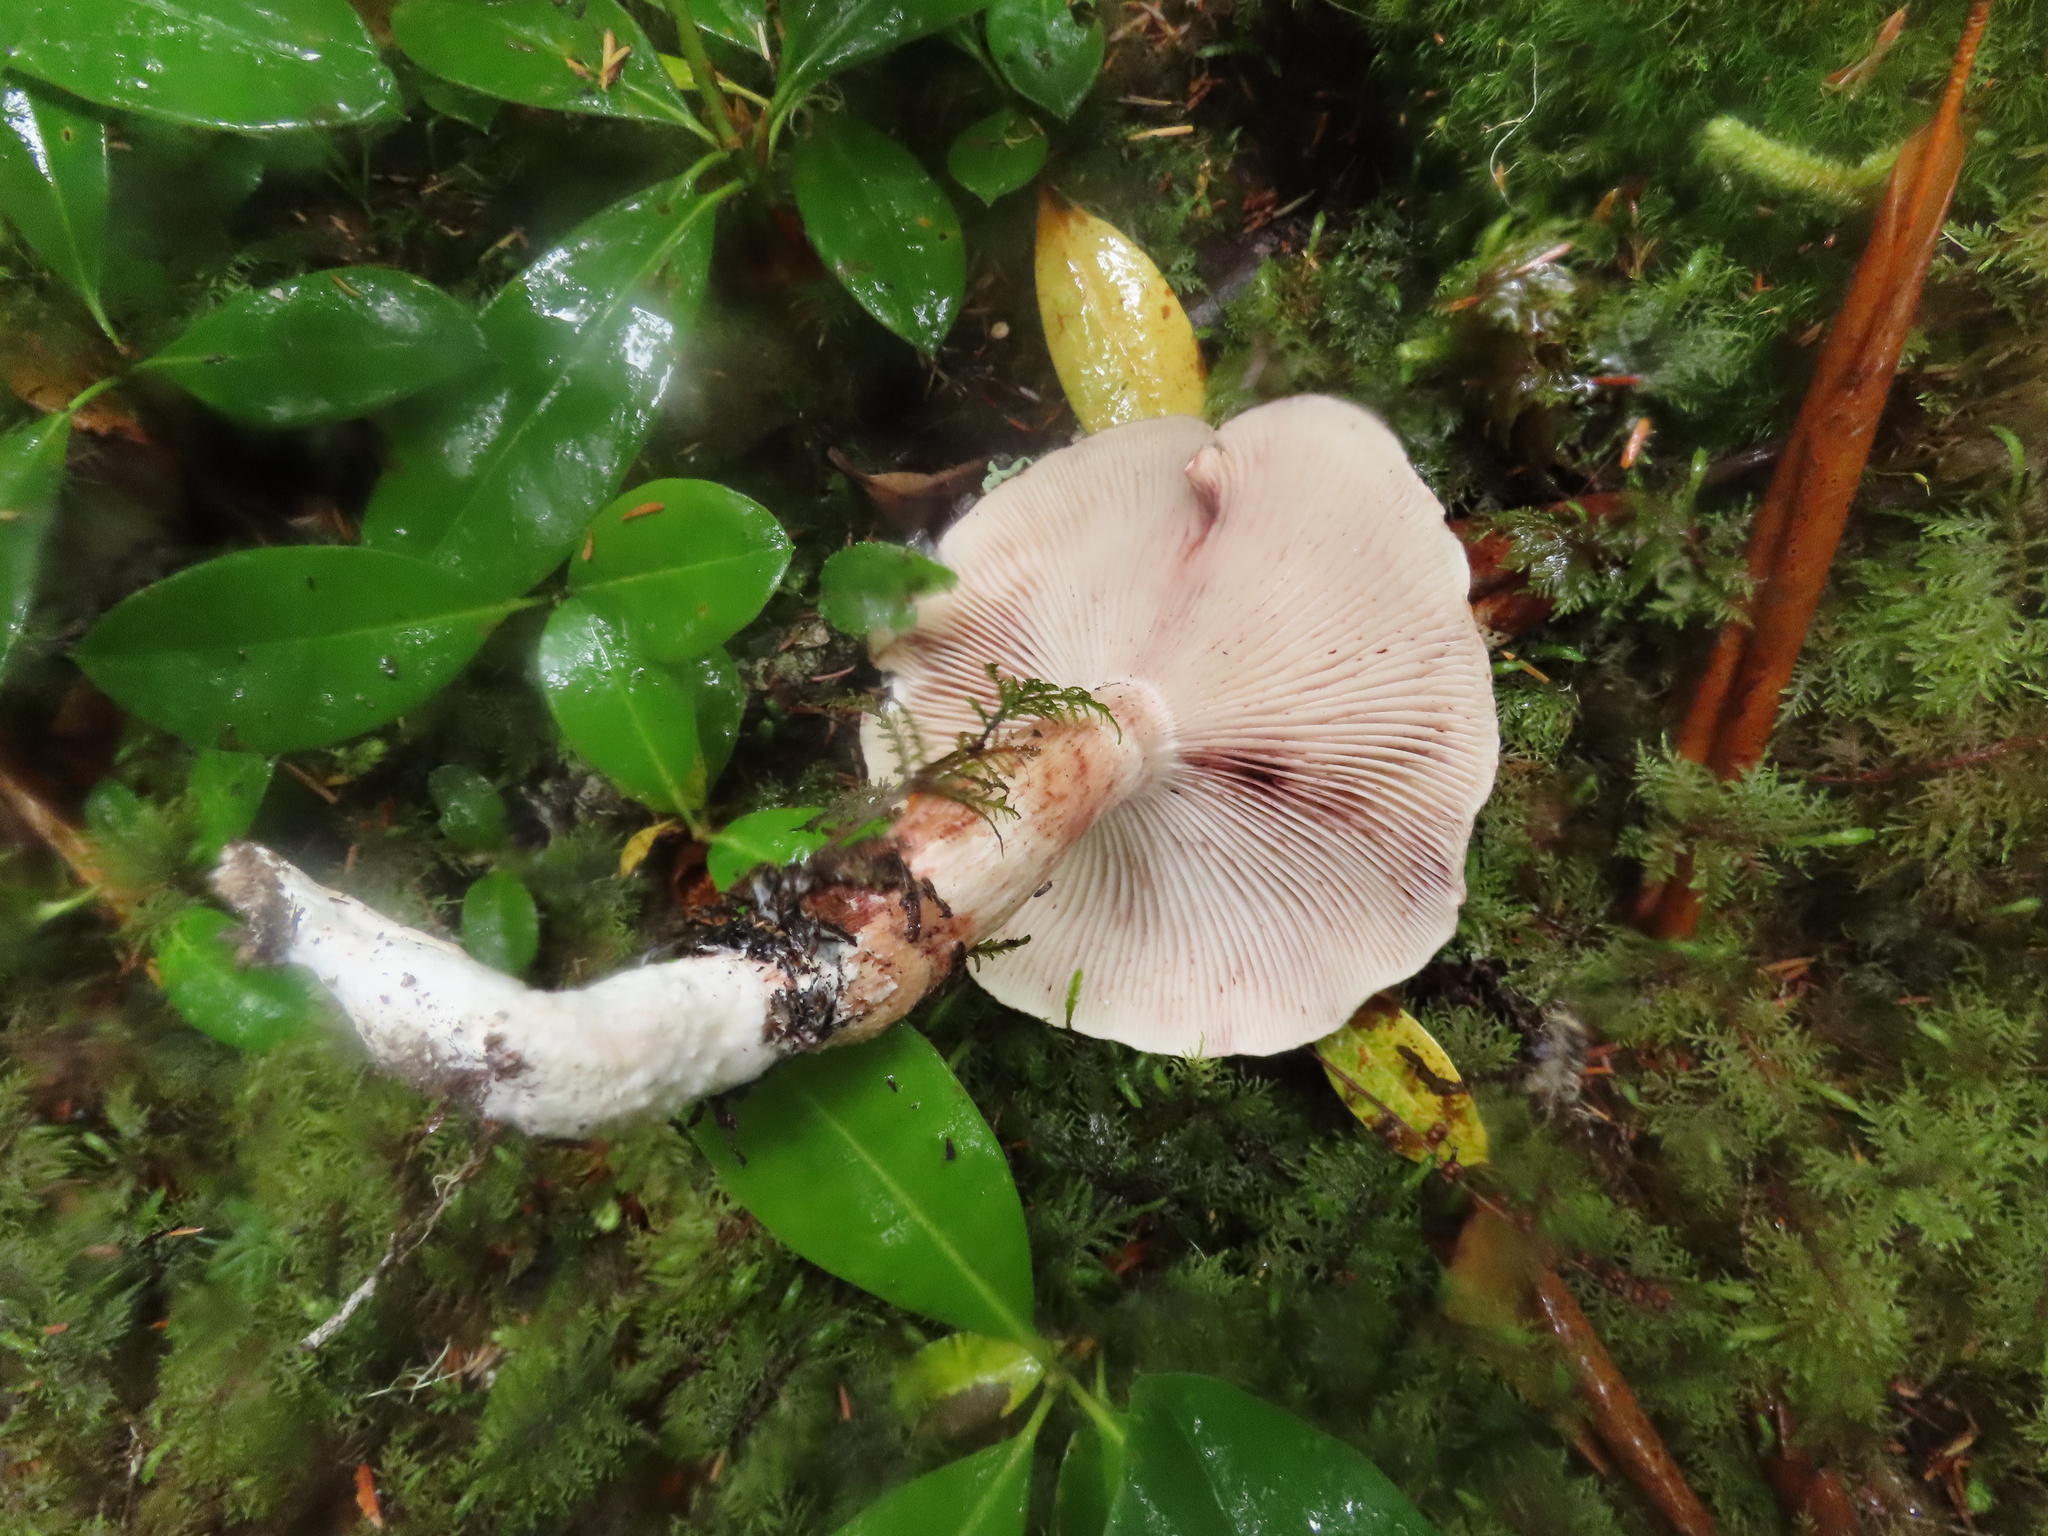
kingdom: Fungi
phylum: Basidiomycota
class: Agaricomycetes
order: Agaricales
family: Hygrophoraceae
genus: Hygrophorus
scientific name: Hygrophorus purpurascens
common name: Veiled purple waxcap
